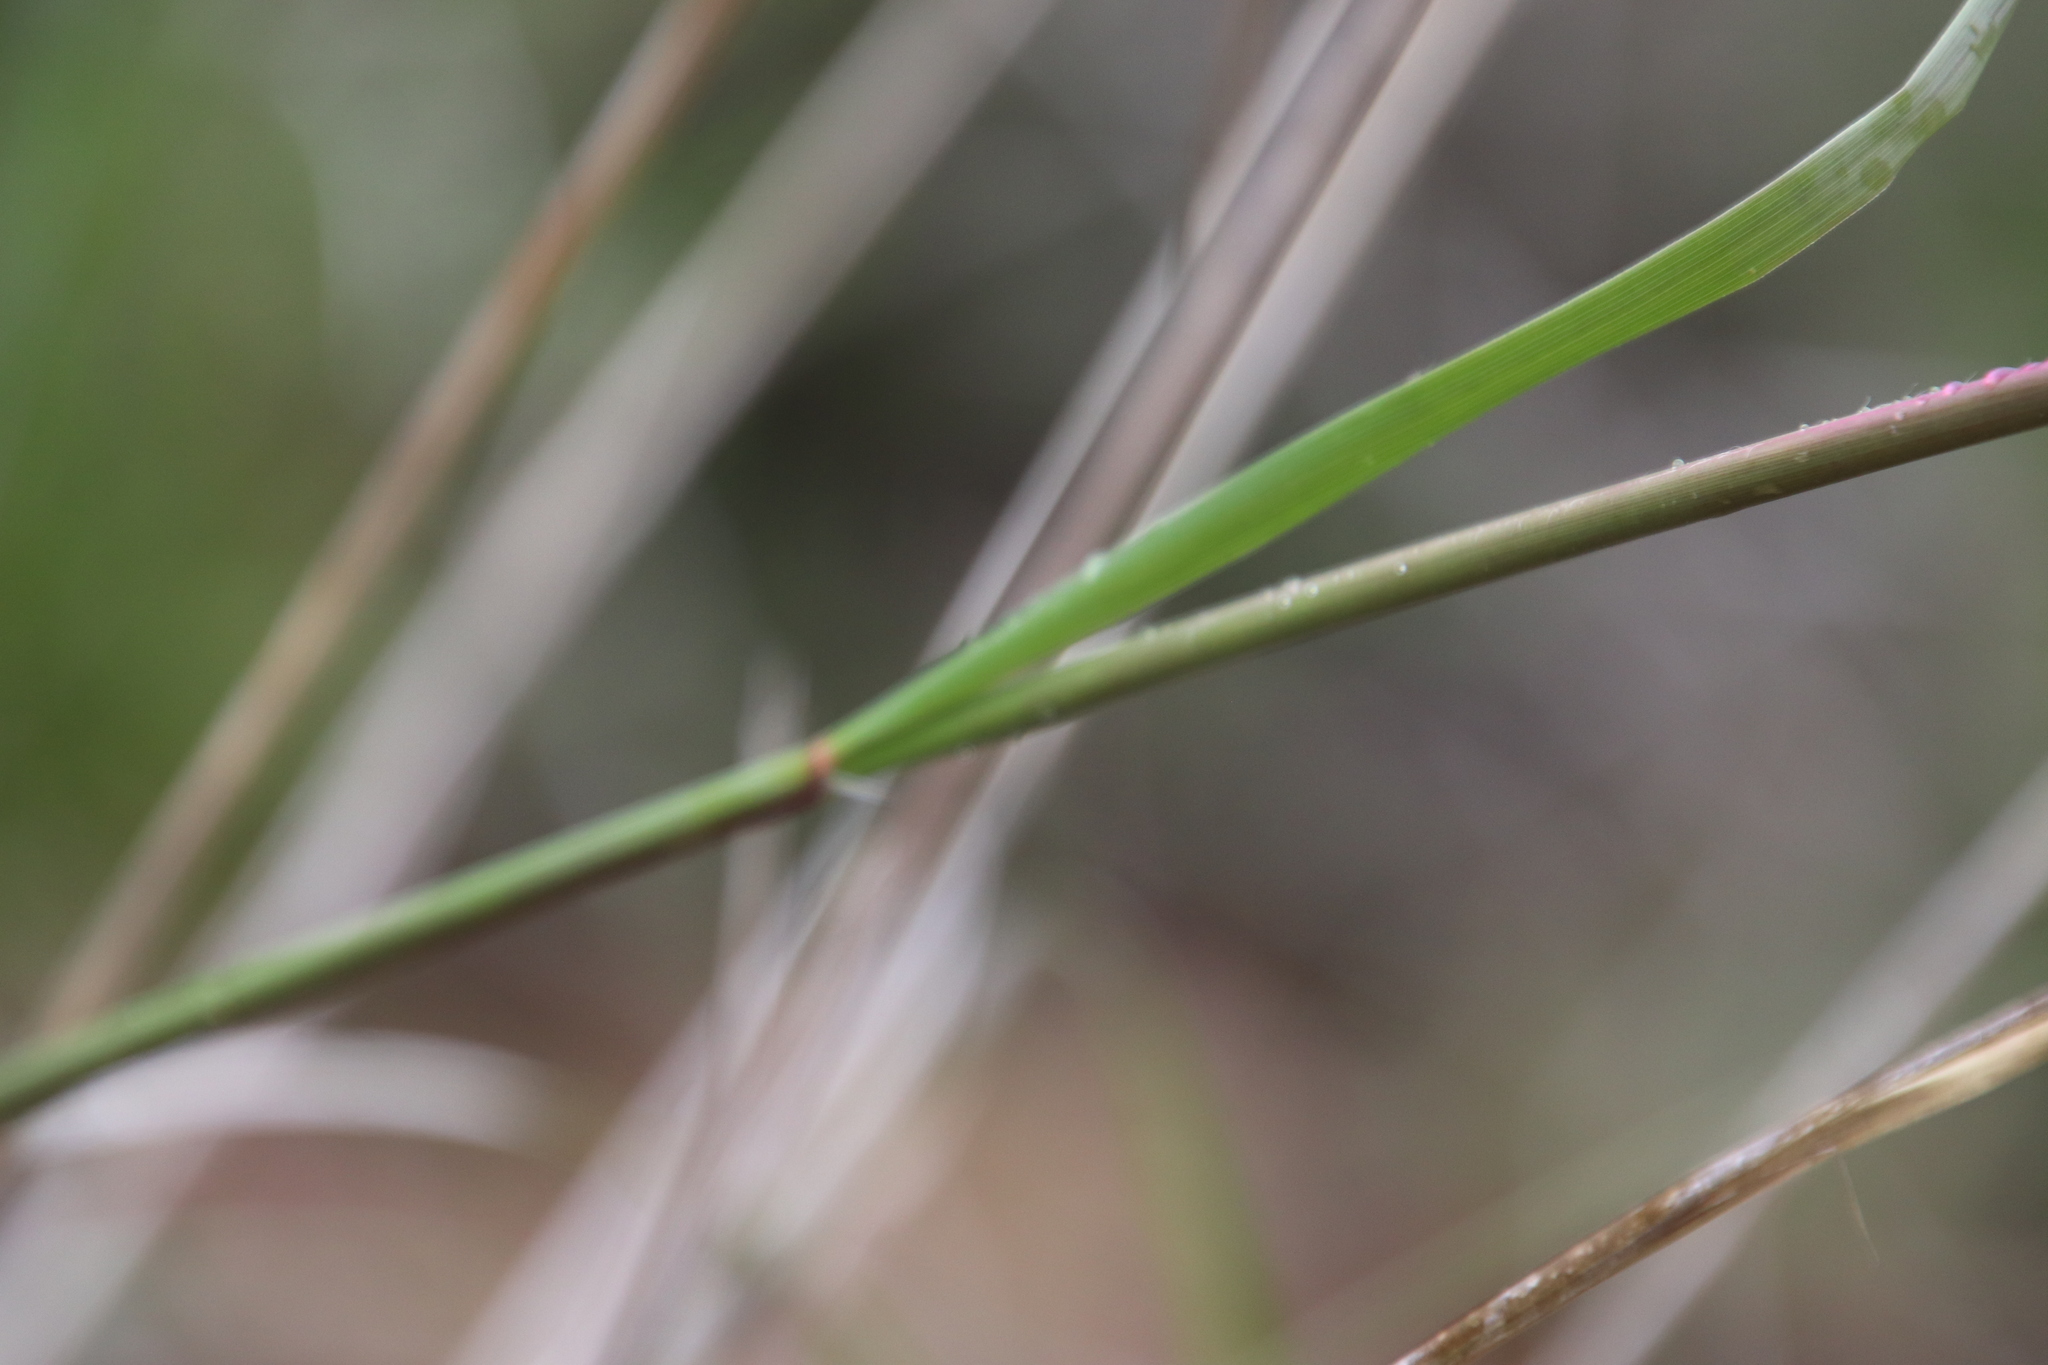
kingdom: Plantae
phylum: Tracheophyta
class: Liliopsida
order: Poales
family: Poaceae
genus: Nassella
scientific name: Nassella pulchra
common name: Purple needlegrass
